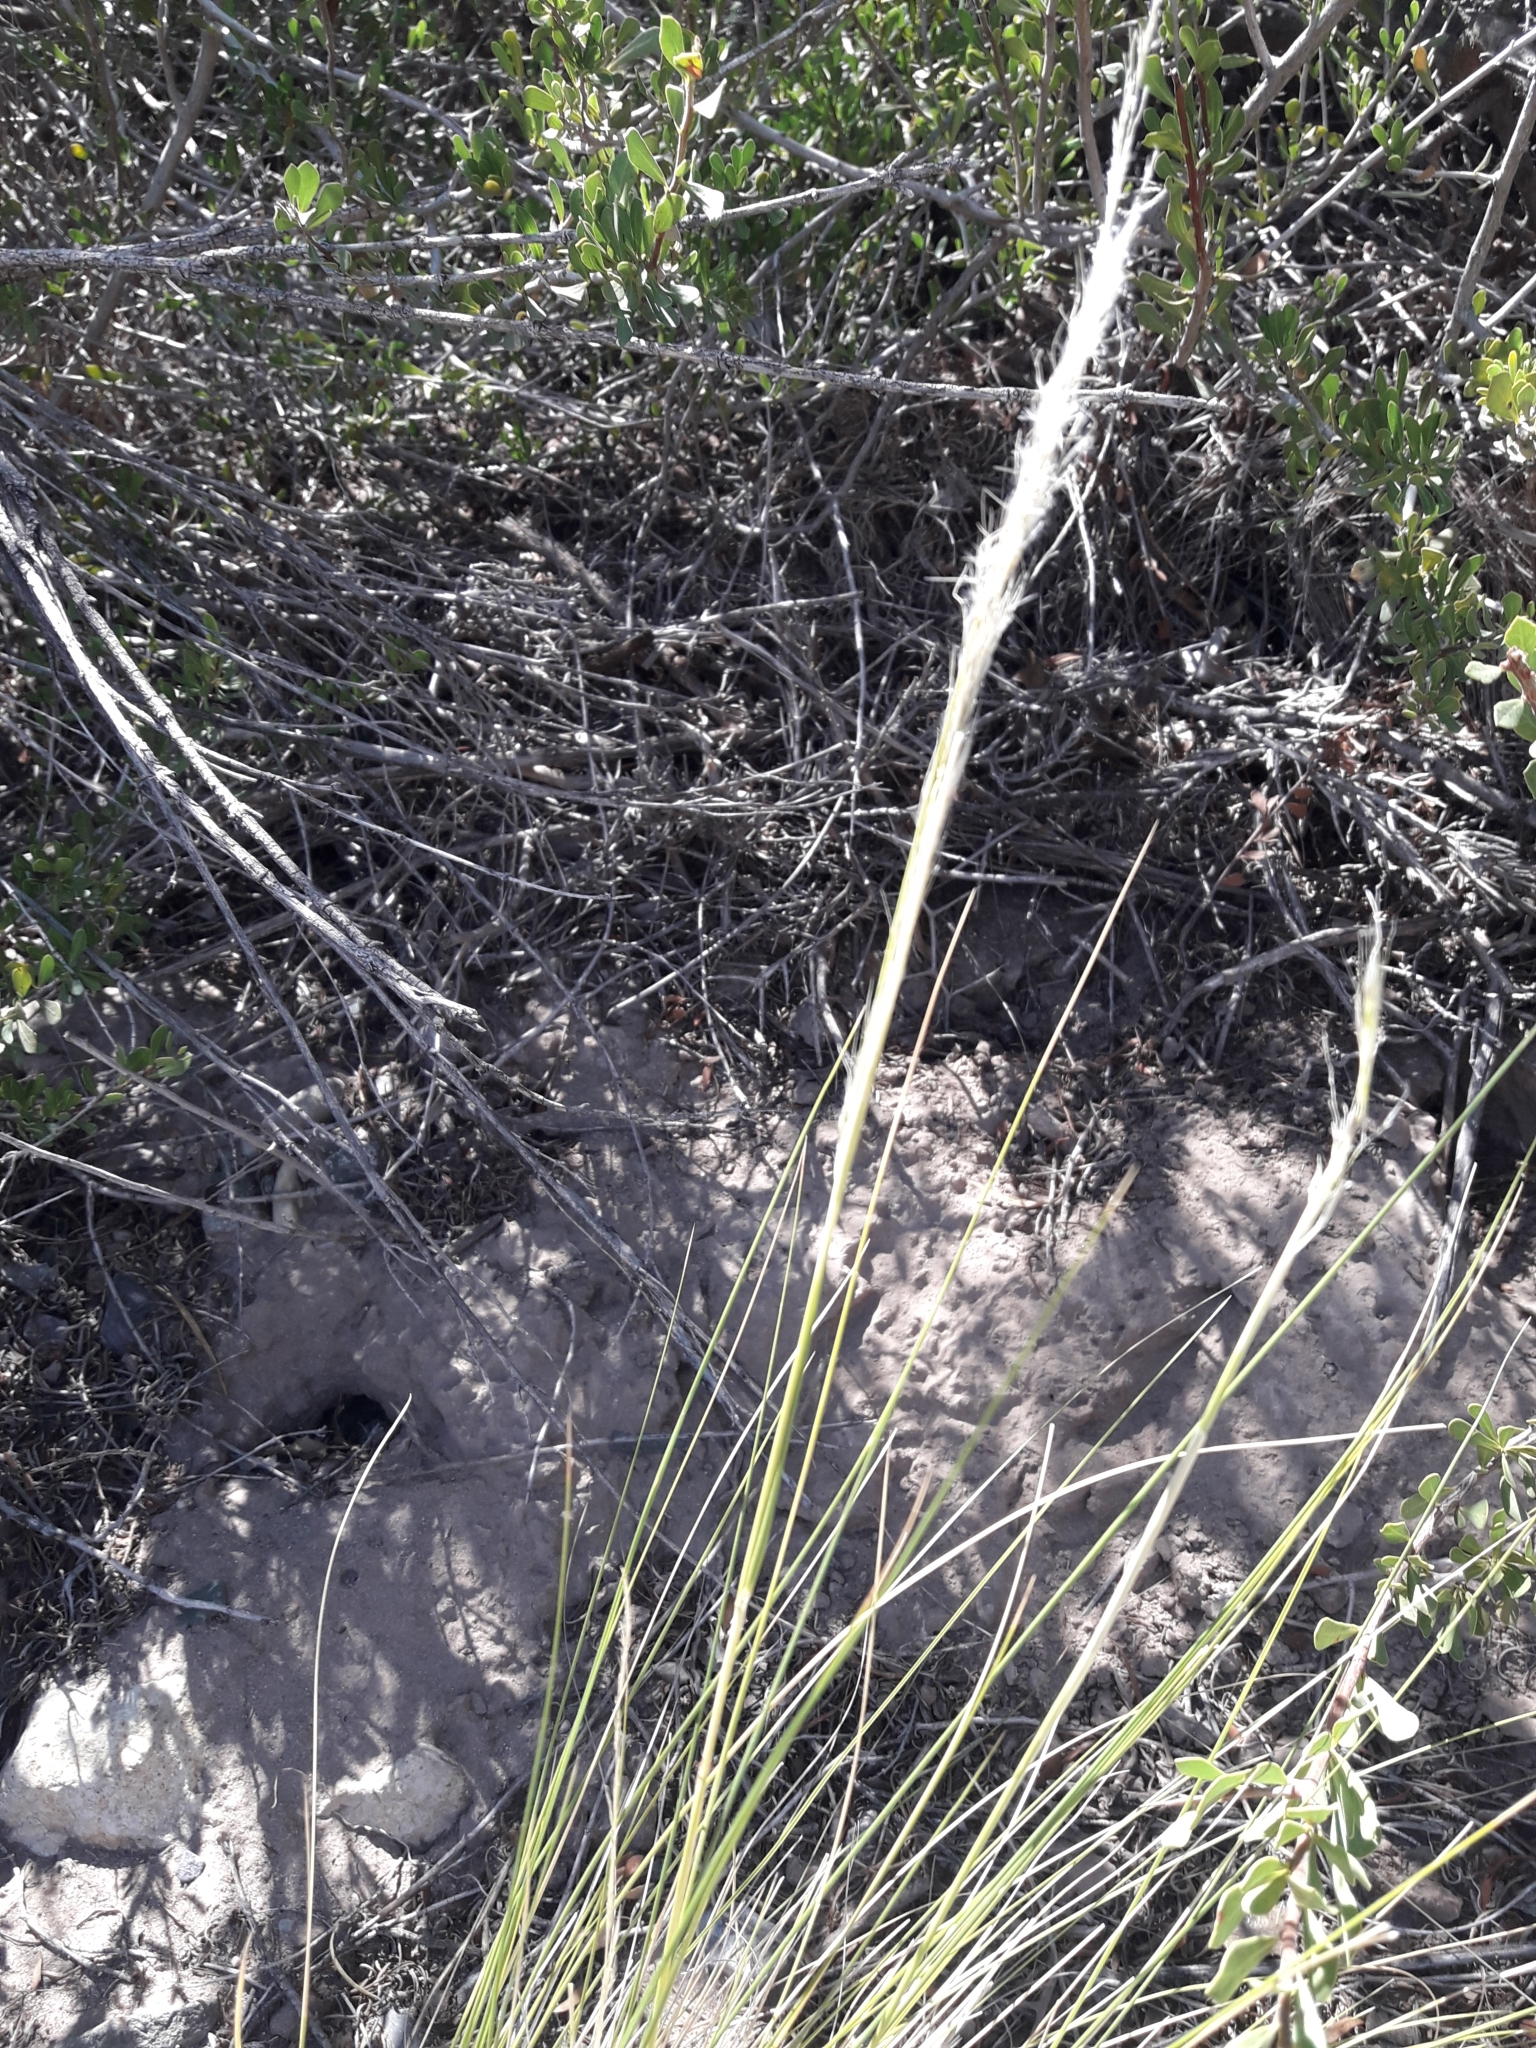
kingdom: Plantae
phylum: Tracheophyta
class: Liliopsida
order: Poales
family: Poaceae
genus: Jarava
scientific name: Jarava ichu
